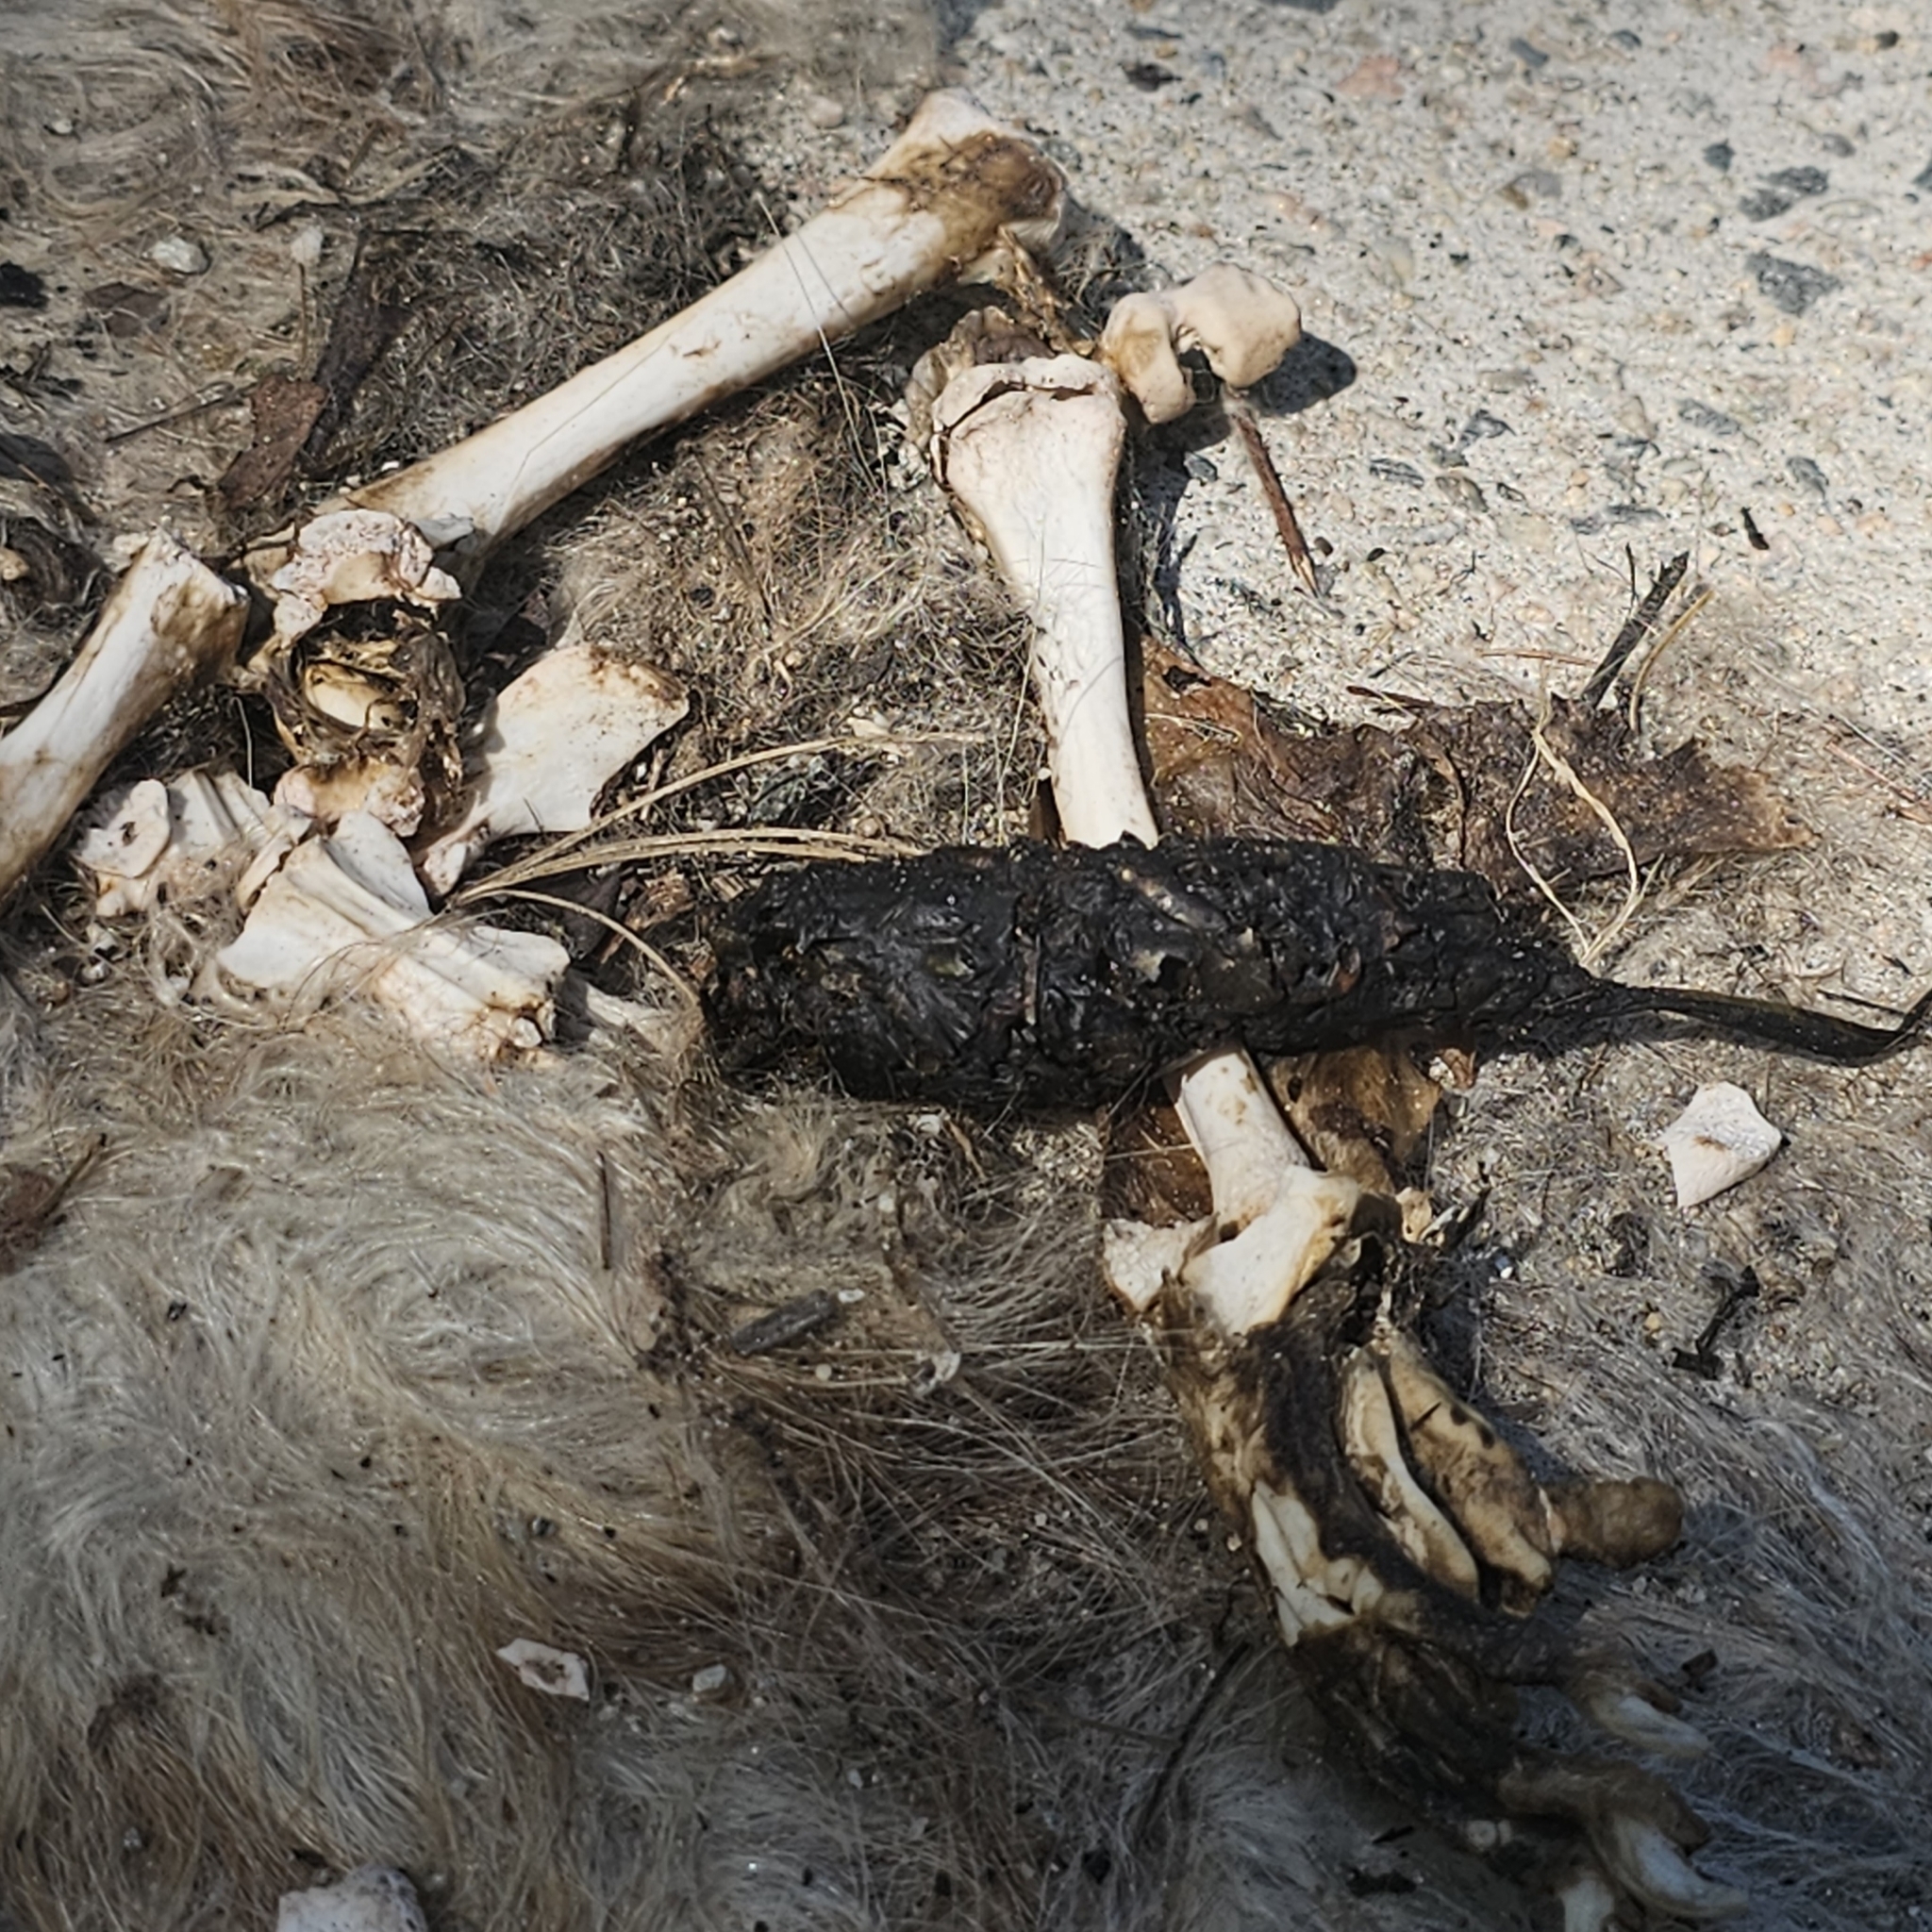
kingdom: Animalia
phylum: Chordata
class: Mammalia
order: Didelphimorphia
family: Didelphidae
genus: Didelphis
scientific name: Didelphis virginiana
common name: Virginia opossum
